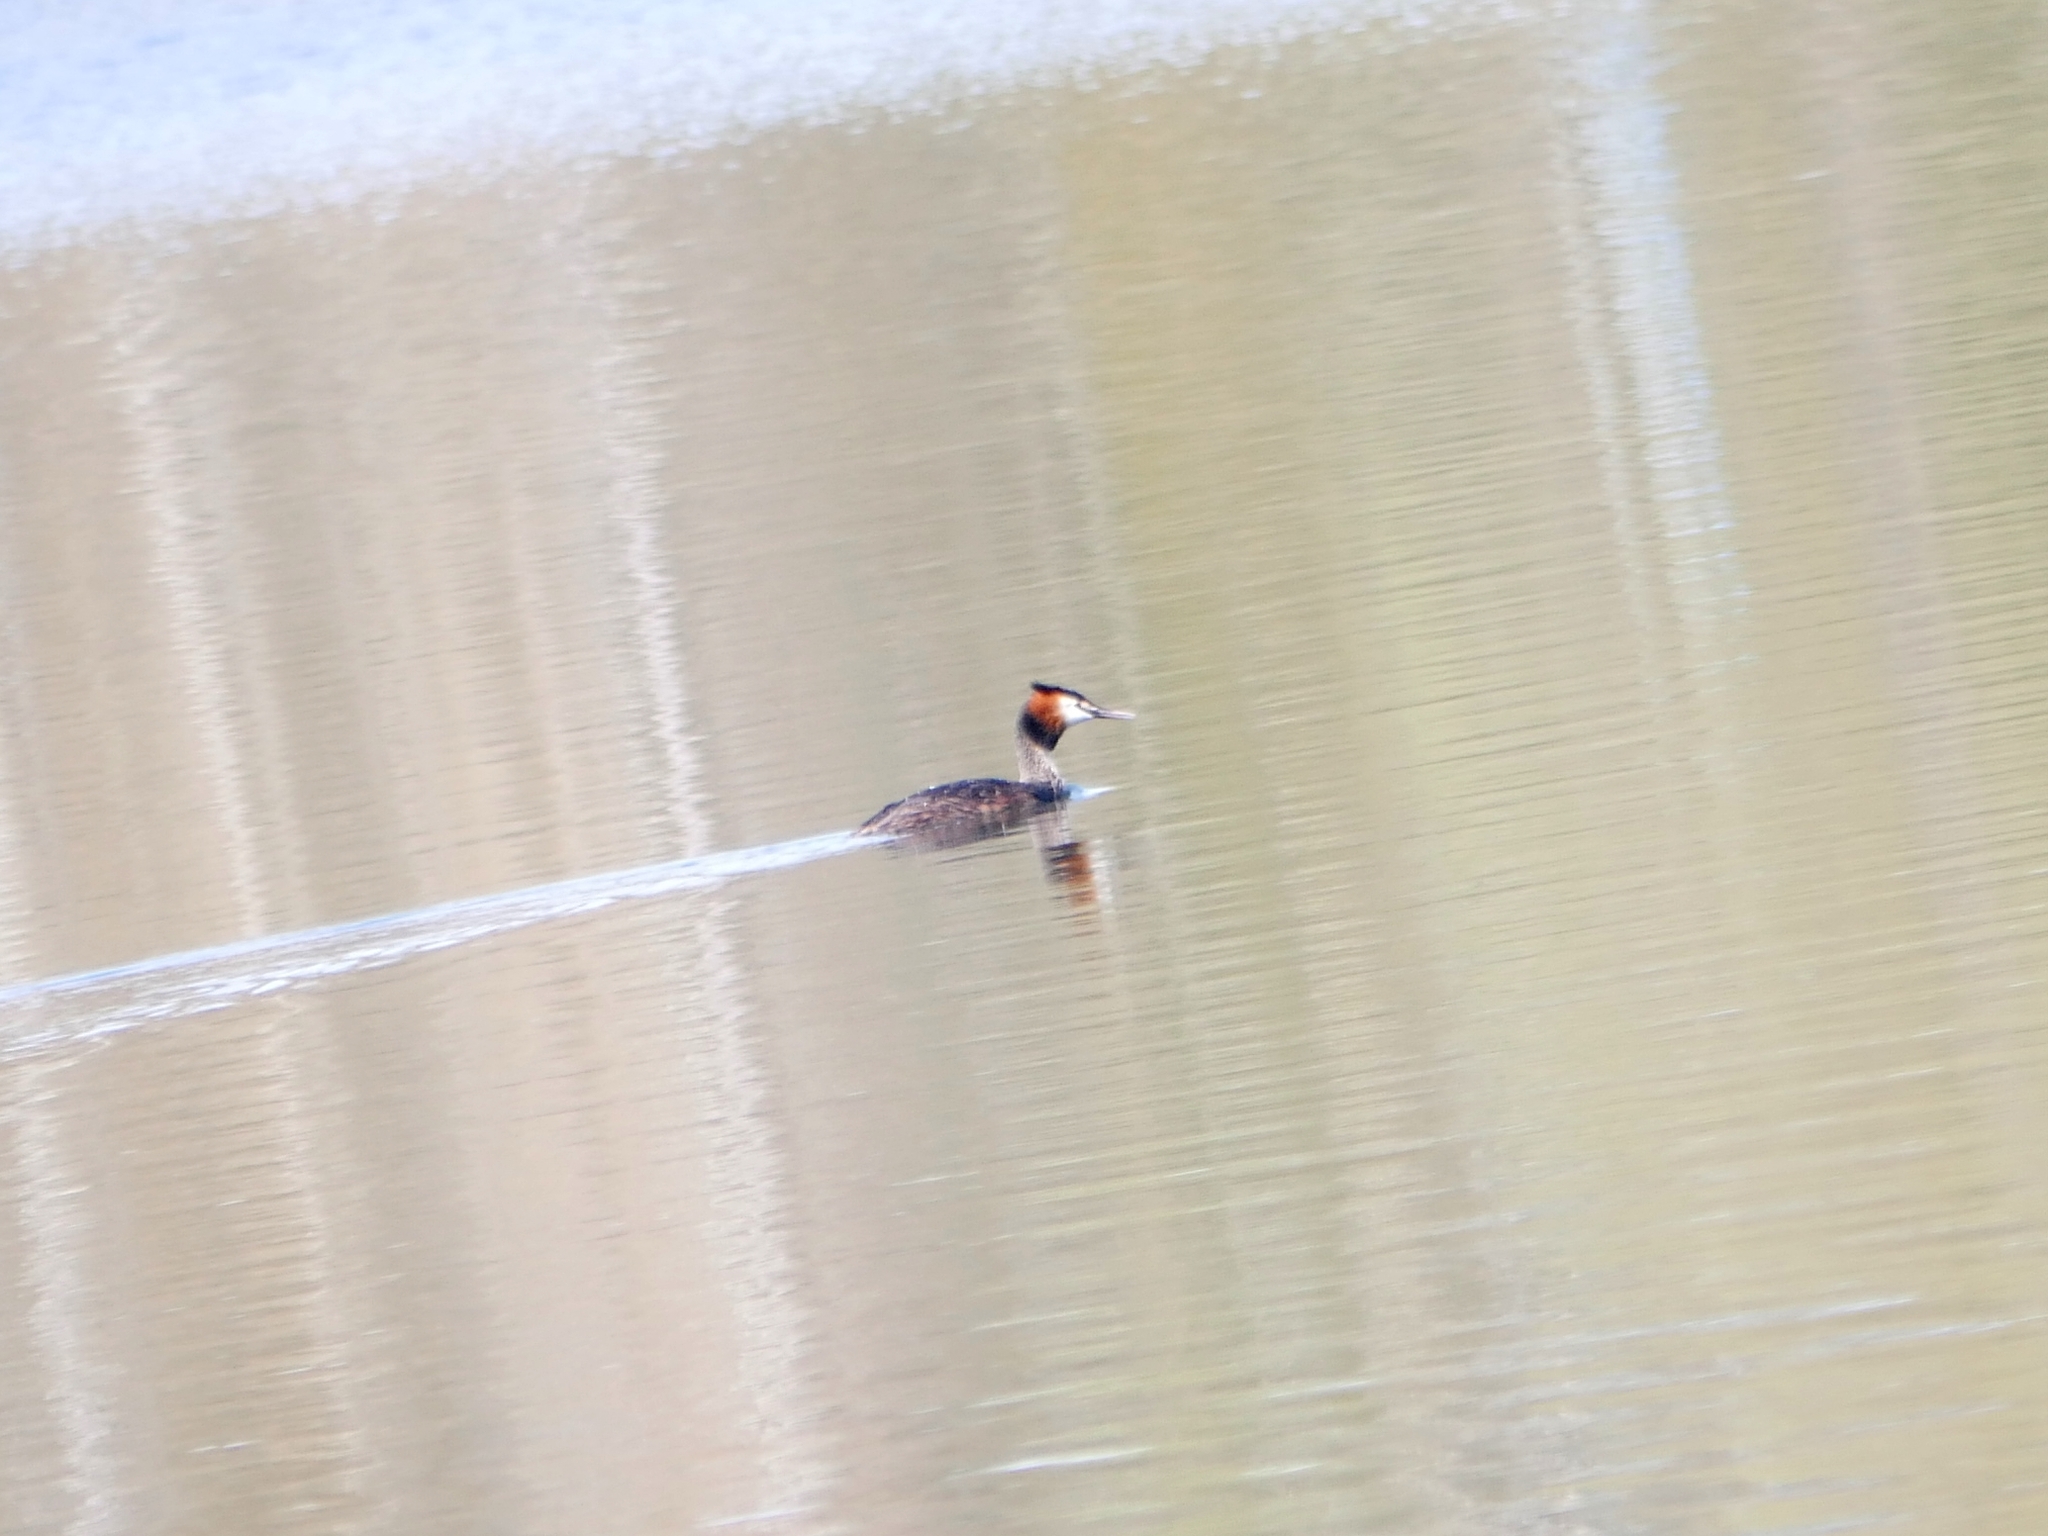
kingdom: Animalia
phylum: Chordata
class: Aves
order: Podicipediformes
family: Podicipedidae
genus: Podiceps
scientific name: Podiceps cristatus
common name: Great crested grebe
